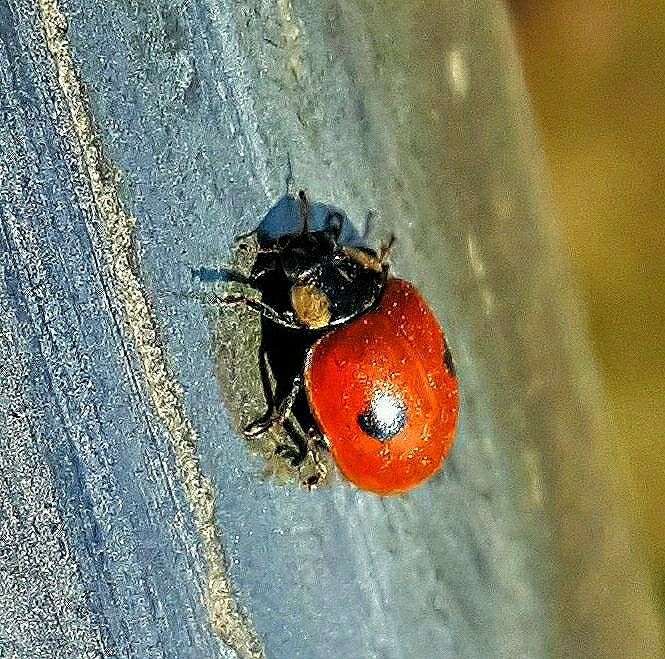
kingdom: Animalia
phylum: Arthropoda
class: Insecta
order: Coleoptera
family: Coccinellidae
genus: Adalia
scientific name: Adalia bipunctata
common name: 2-spot ladybird
